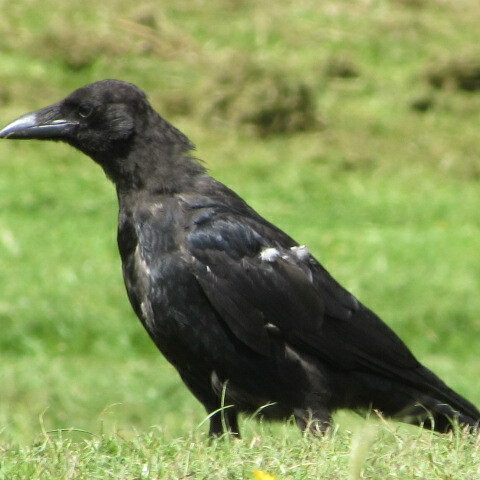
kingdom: Animalia
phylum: Chordata
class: Aves
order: Passeriformes
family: Corvidae
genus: Corvus
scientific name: Corvus corone
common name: Carrion crow
